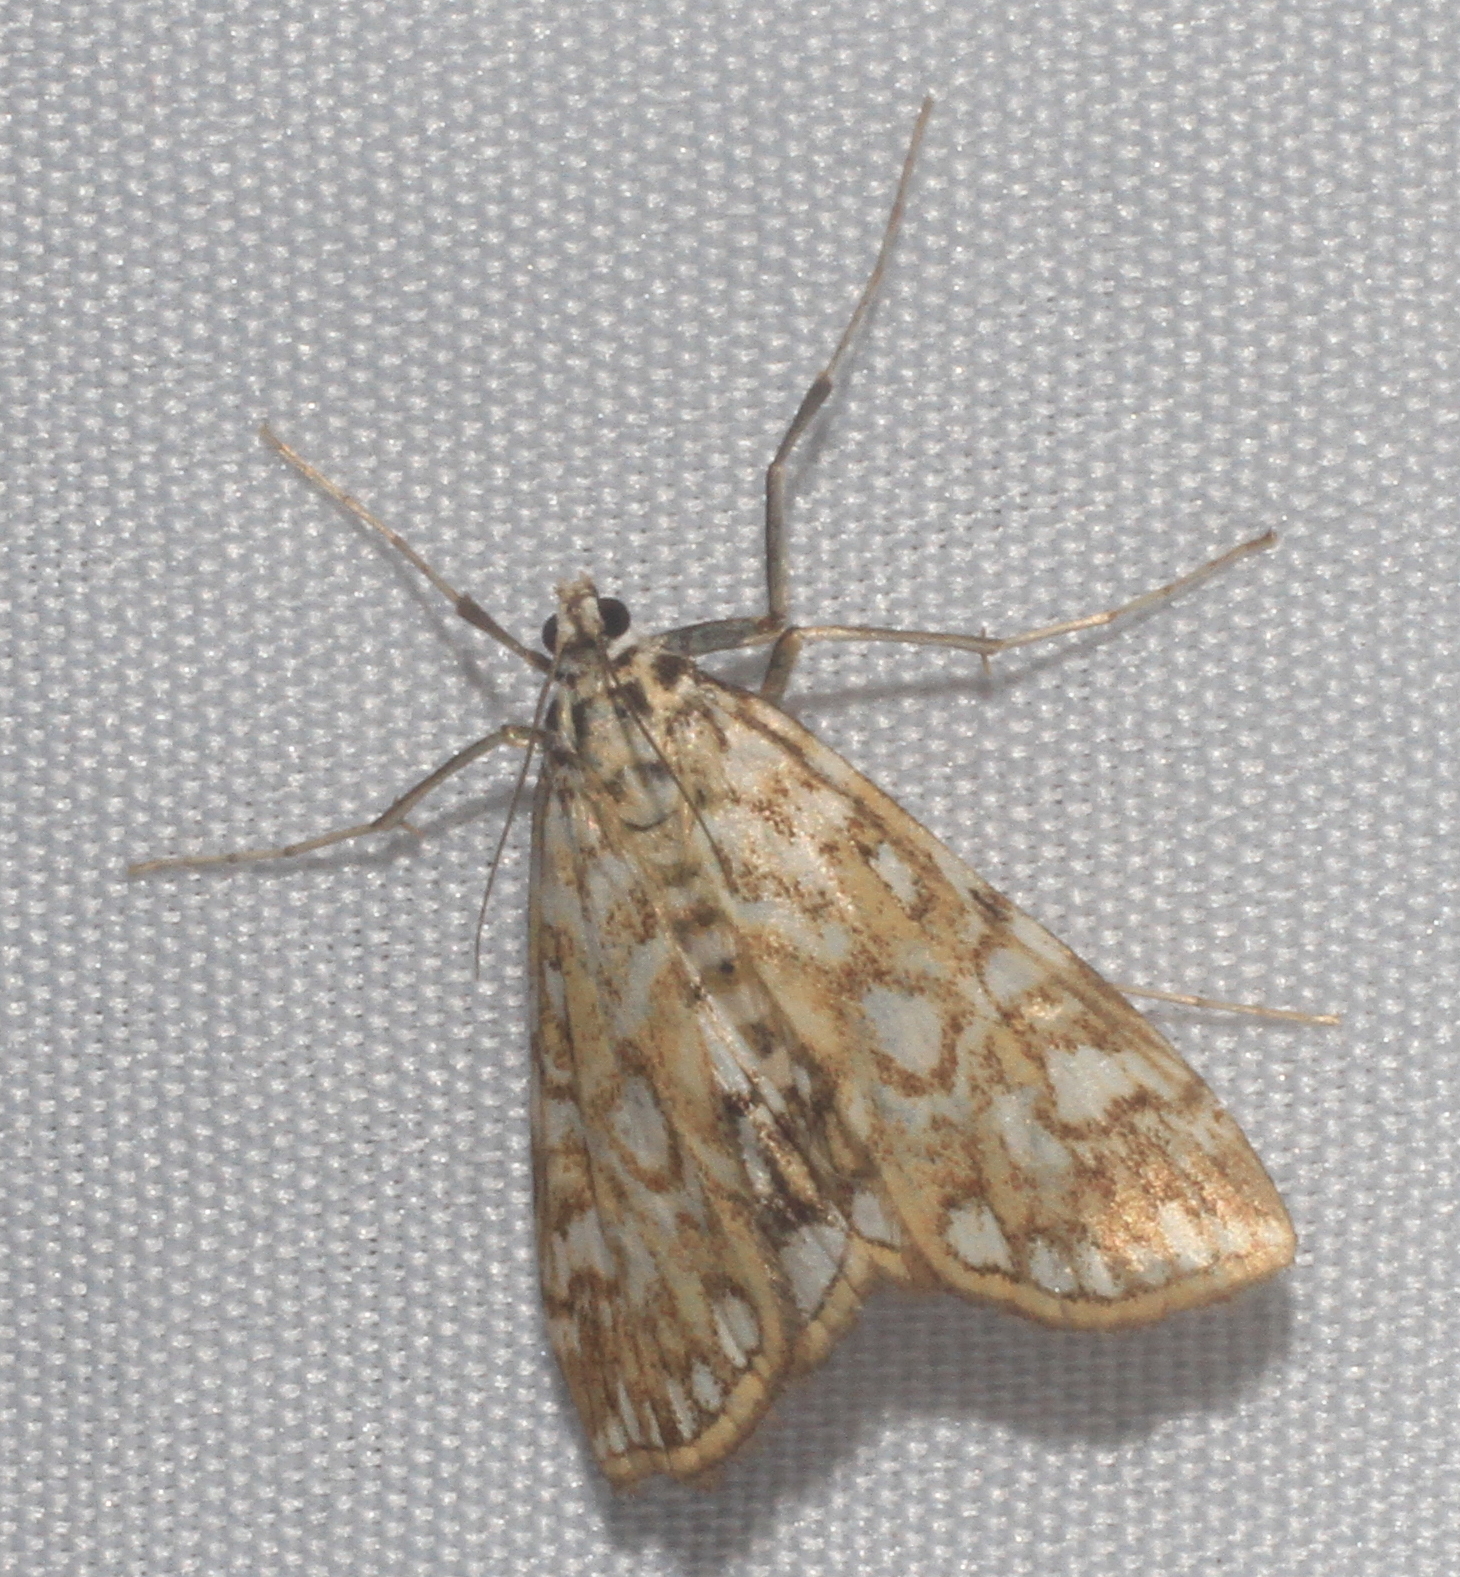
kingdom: Animalia
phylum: Arthropoda
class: Insecta
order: Lepidoptera
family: Crambidae
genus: Elophila
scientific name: Elophila nymphaeata
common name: Brown china-mark
